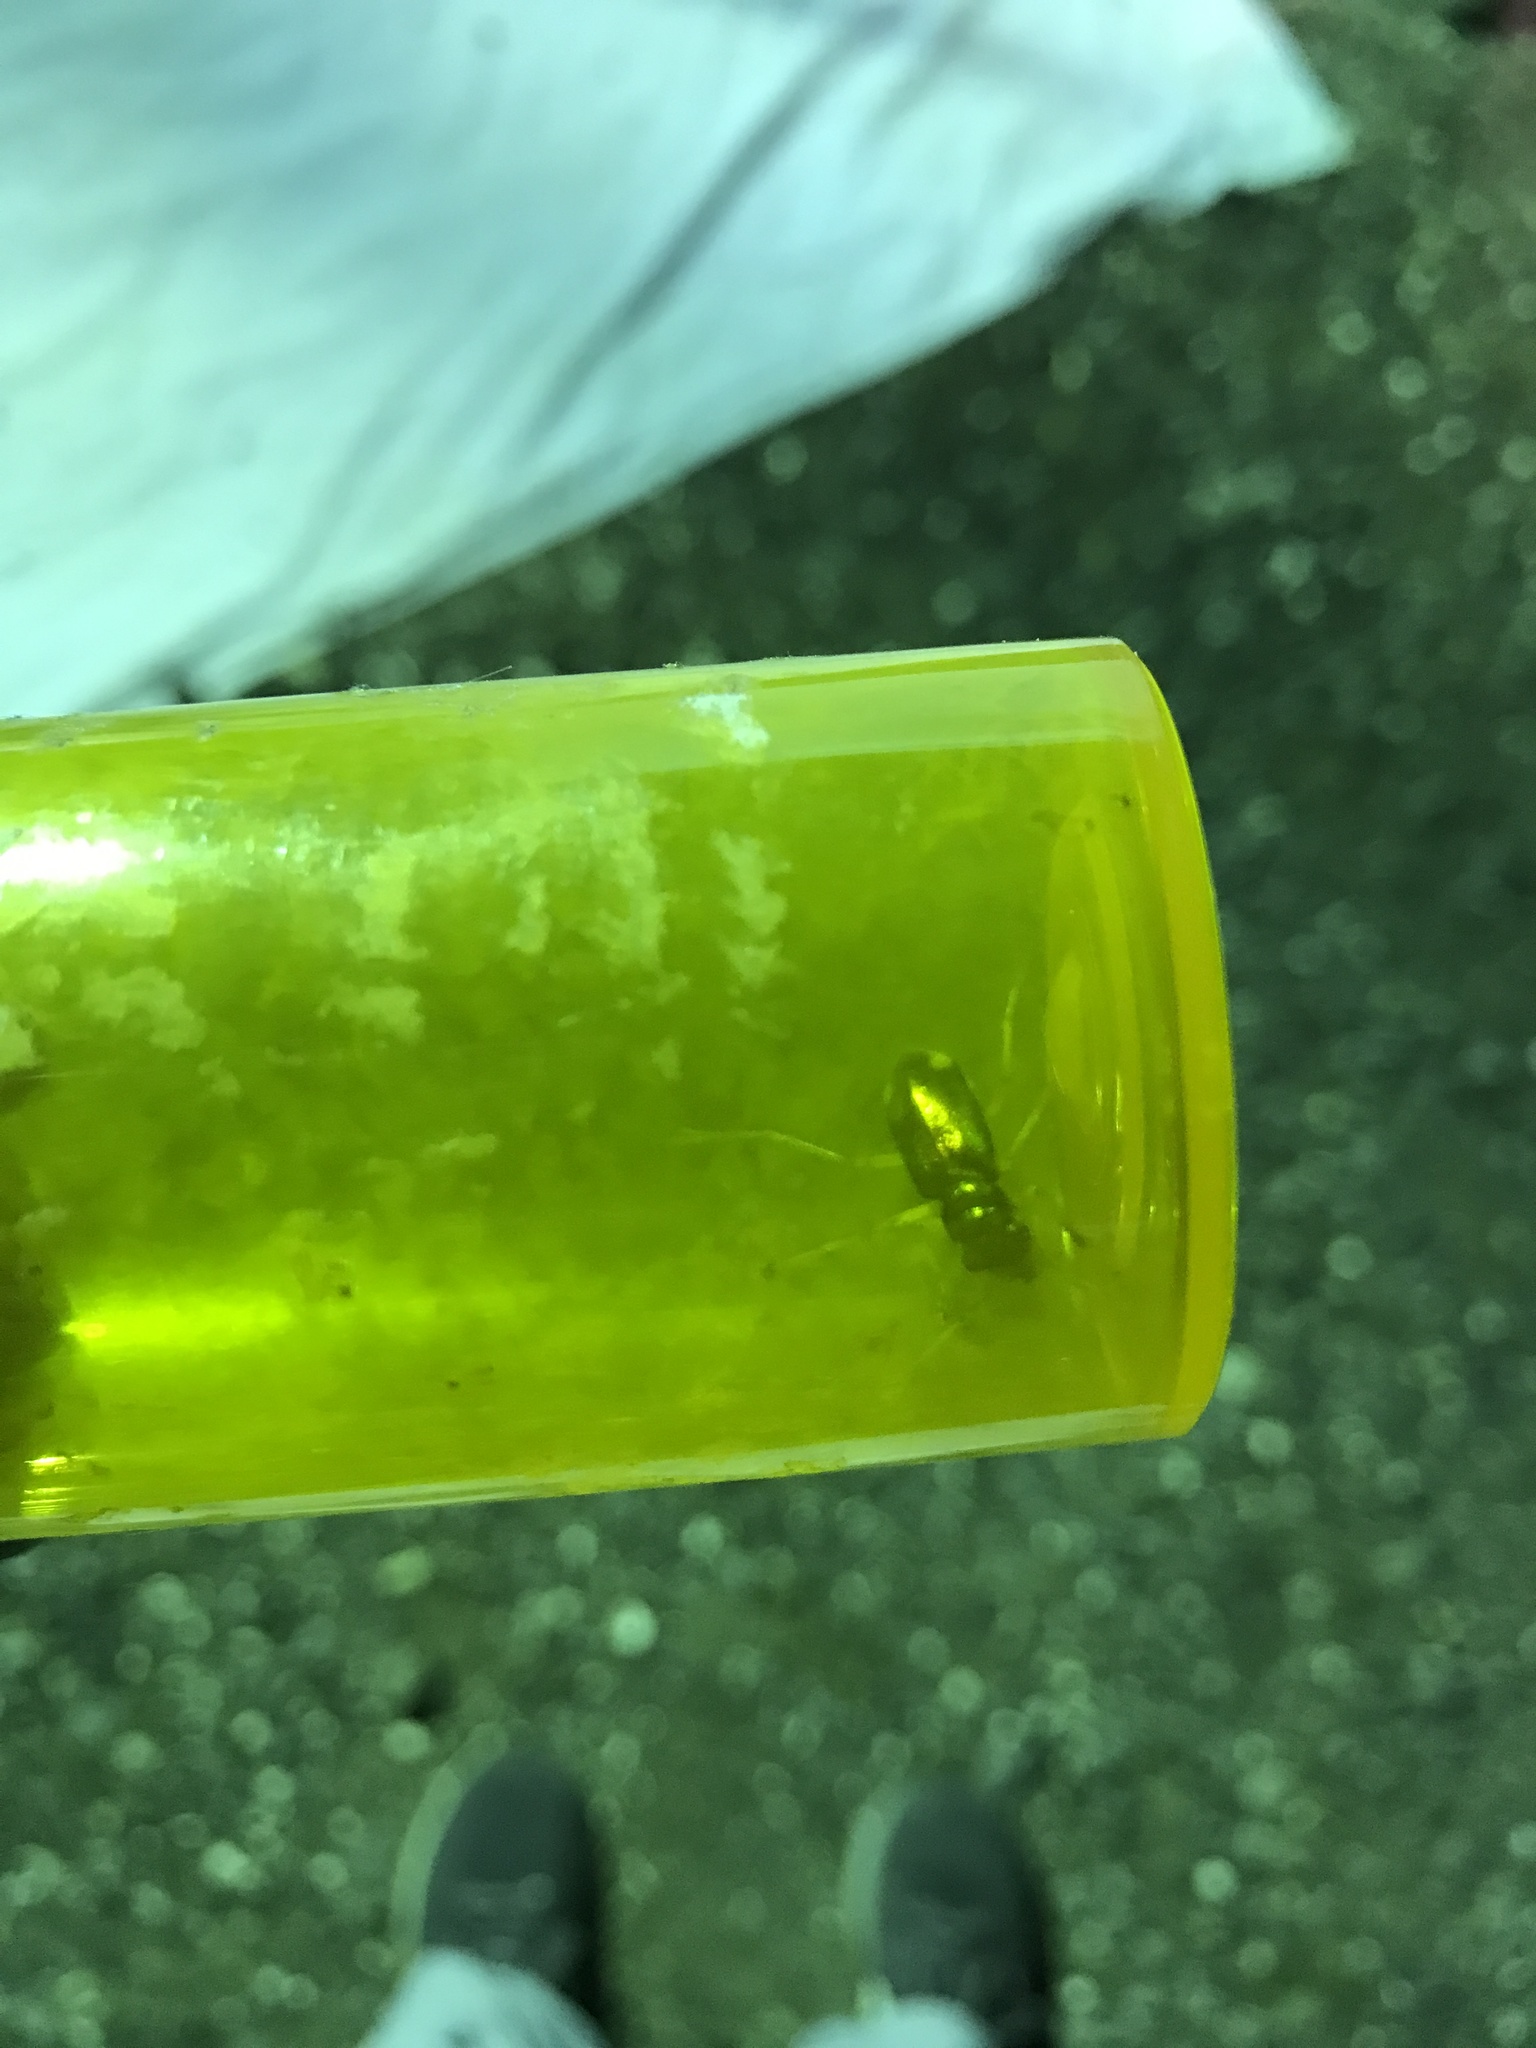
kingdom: Animalia
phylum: Arthropoda
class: Insecta
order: Coleoptera
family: Carabidae
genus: Tetracha
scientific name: Tetracha carolina
